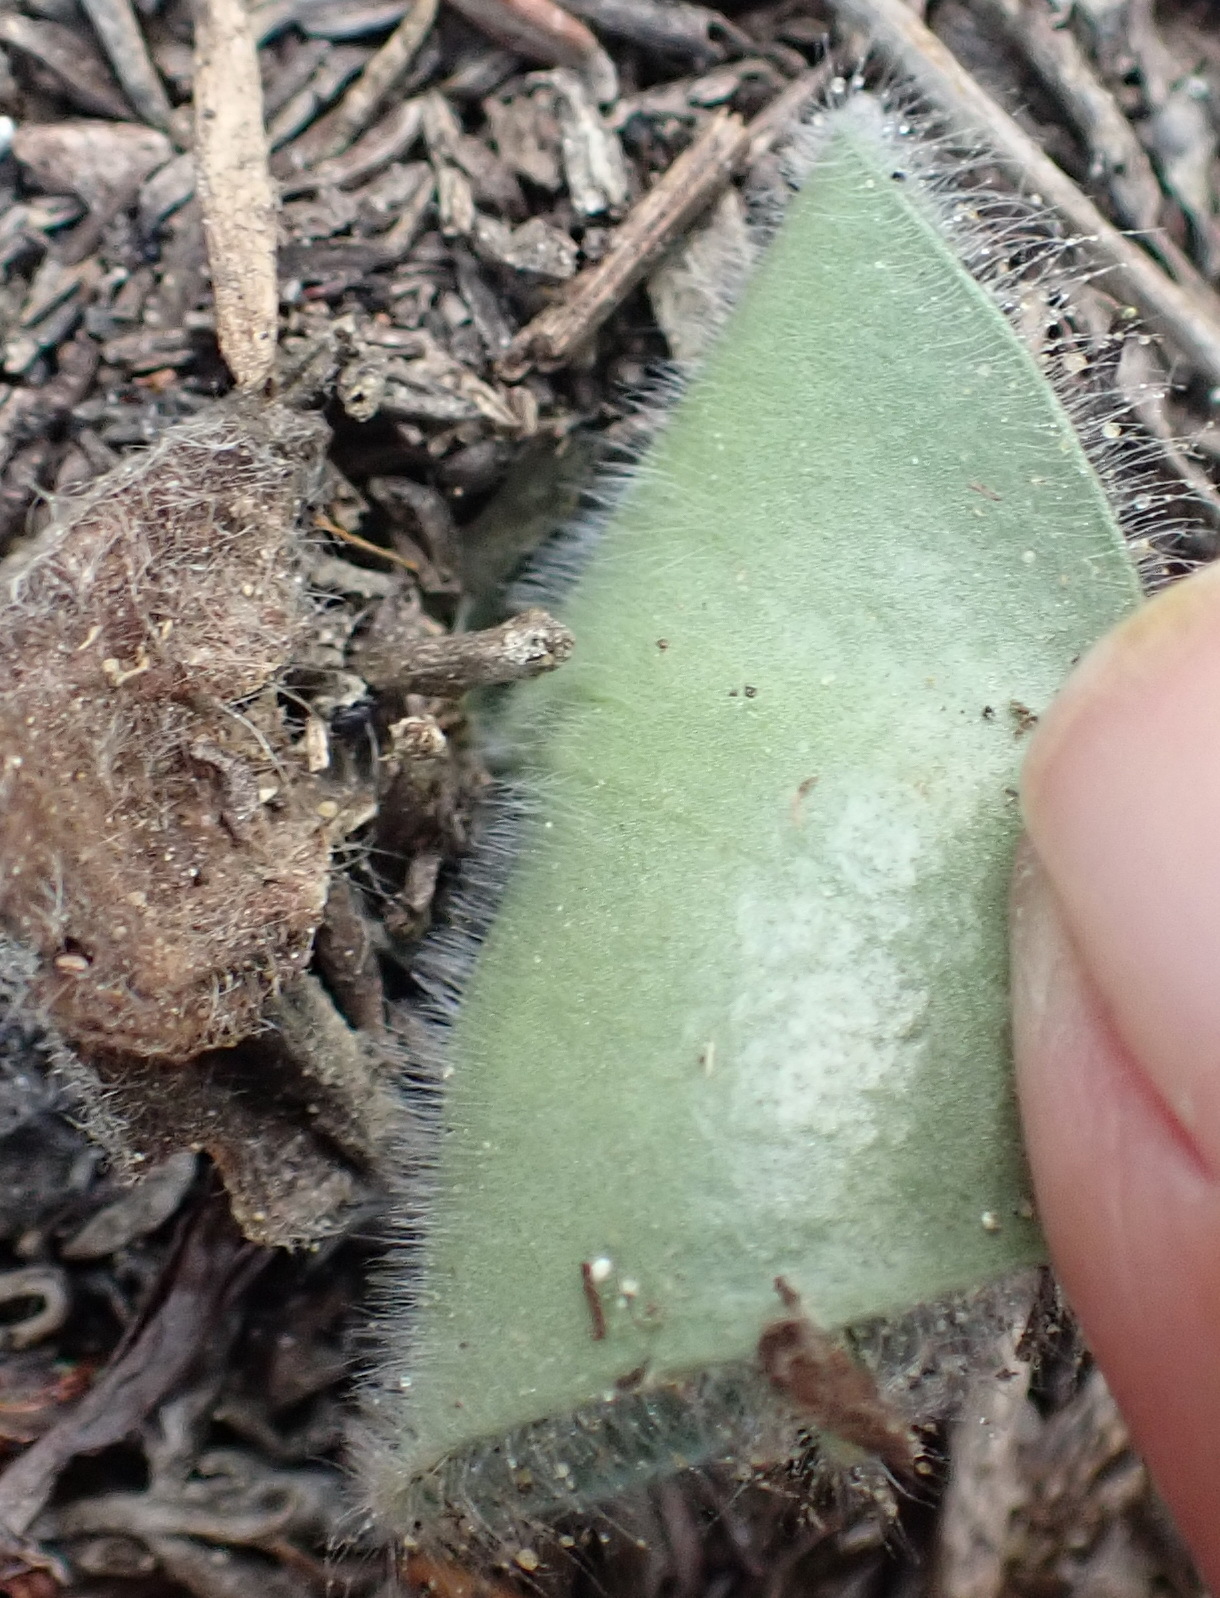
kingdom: Plantae
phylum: Tracheophyta
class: Liliopsida
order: Asparagales
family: Orchidaceae
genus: Holothrix
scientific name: Holothrix villosa
